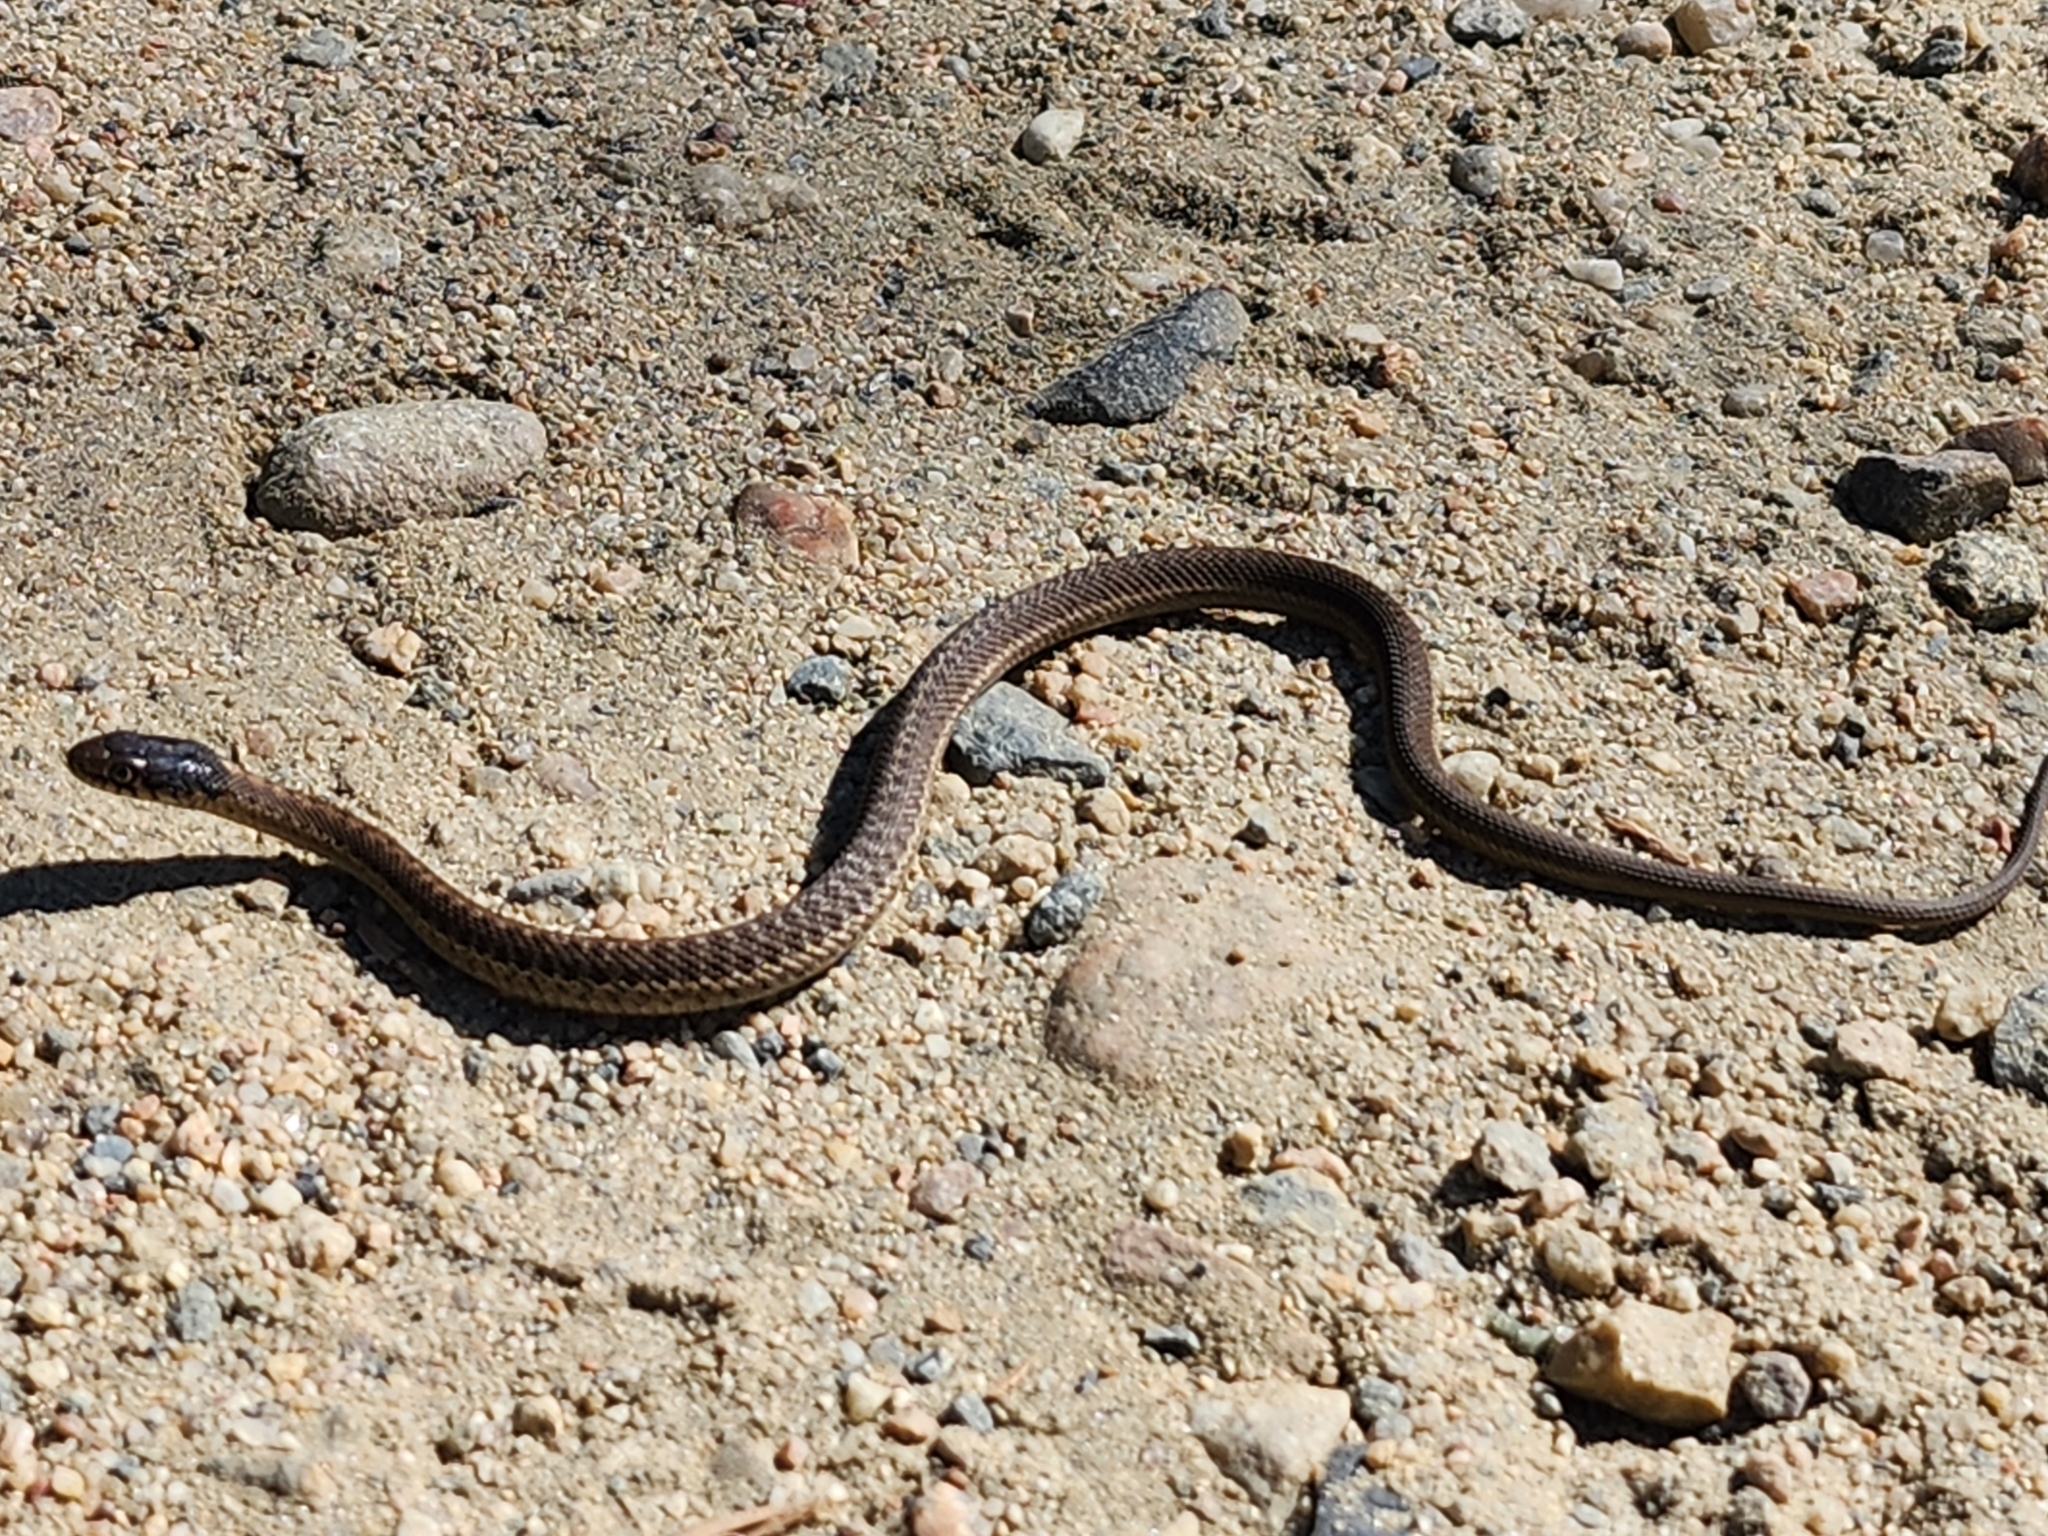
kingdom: Animalia
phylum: Chordata
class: Squamata
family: Colubridae
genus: Thamnophis
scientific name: Thamnophis elegans
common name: Western terrestrial garter snake
